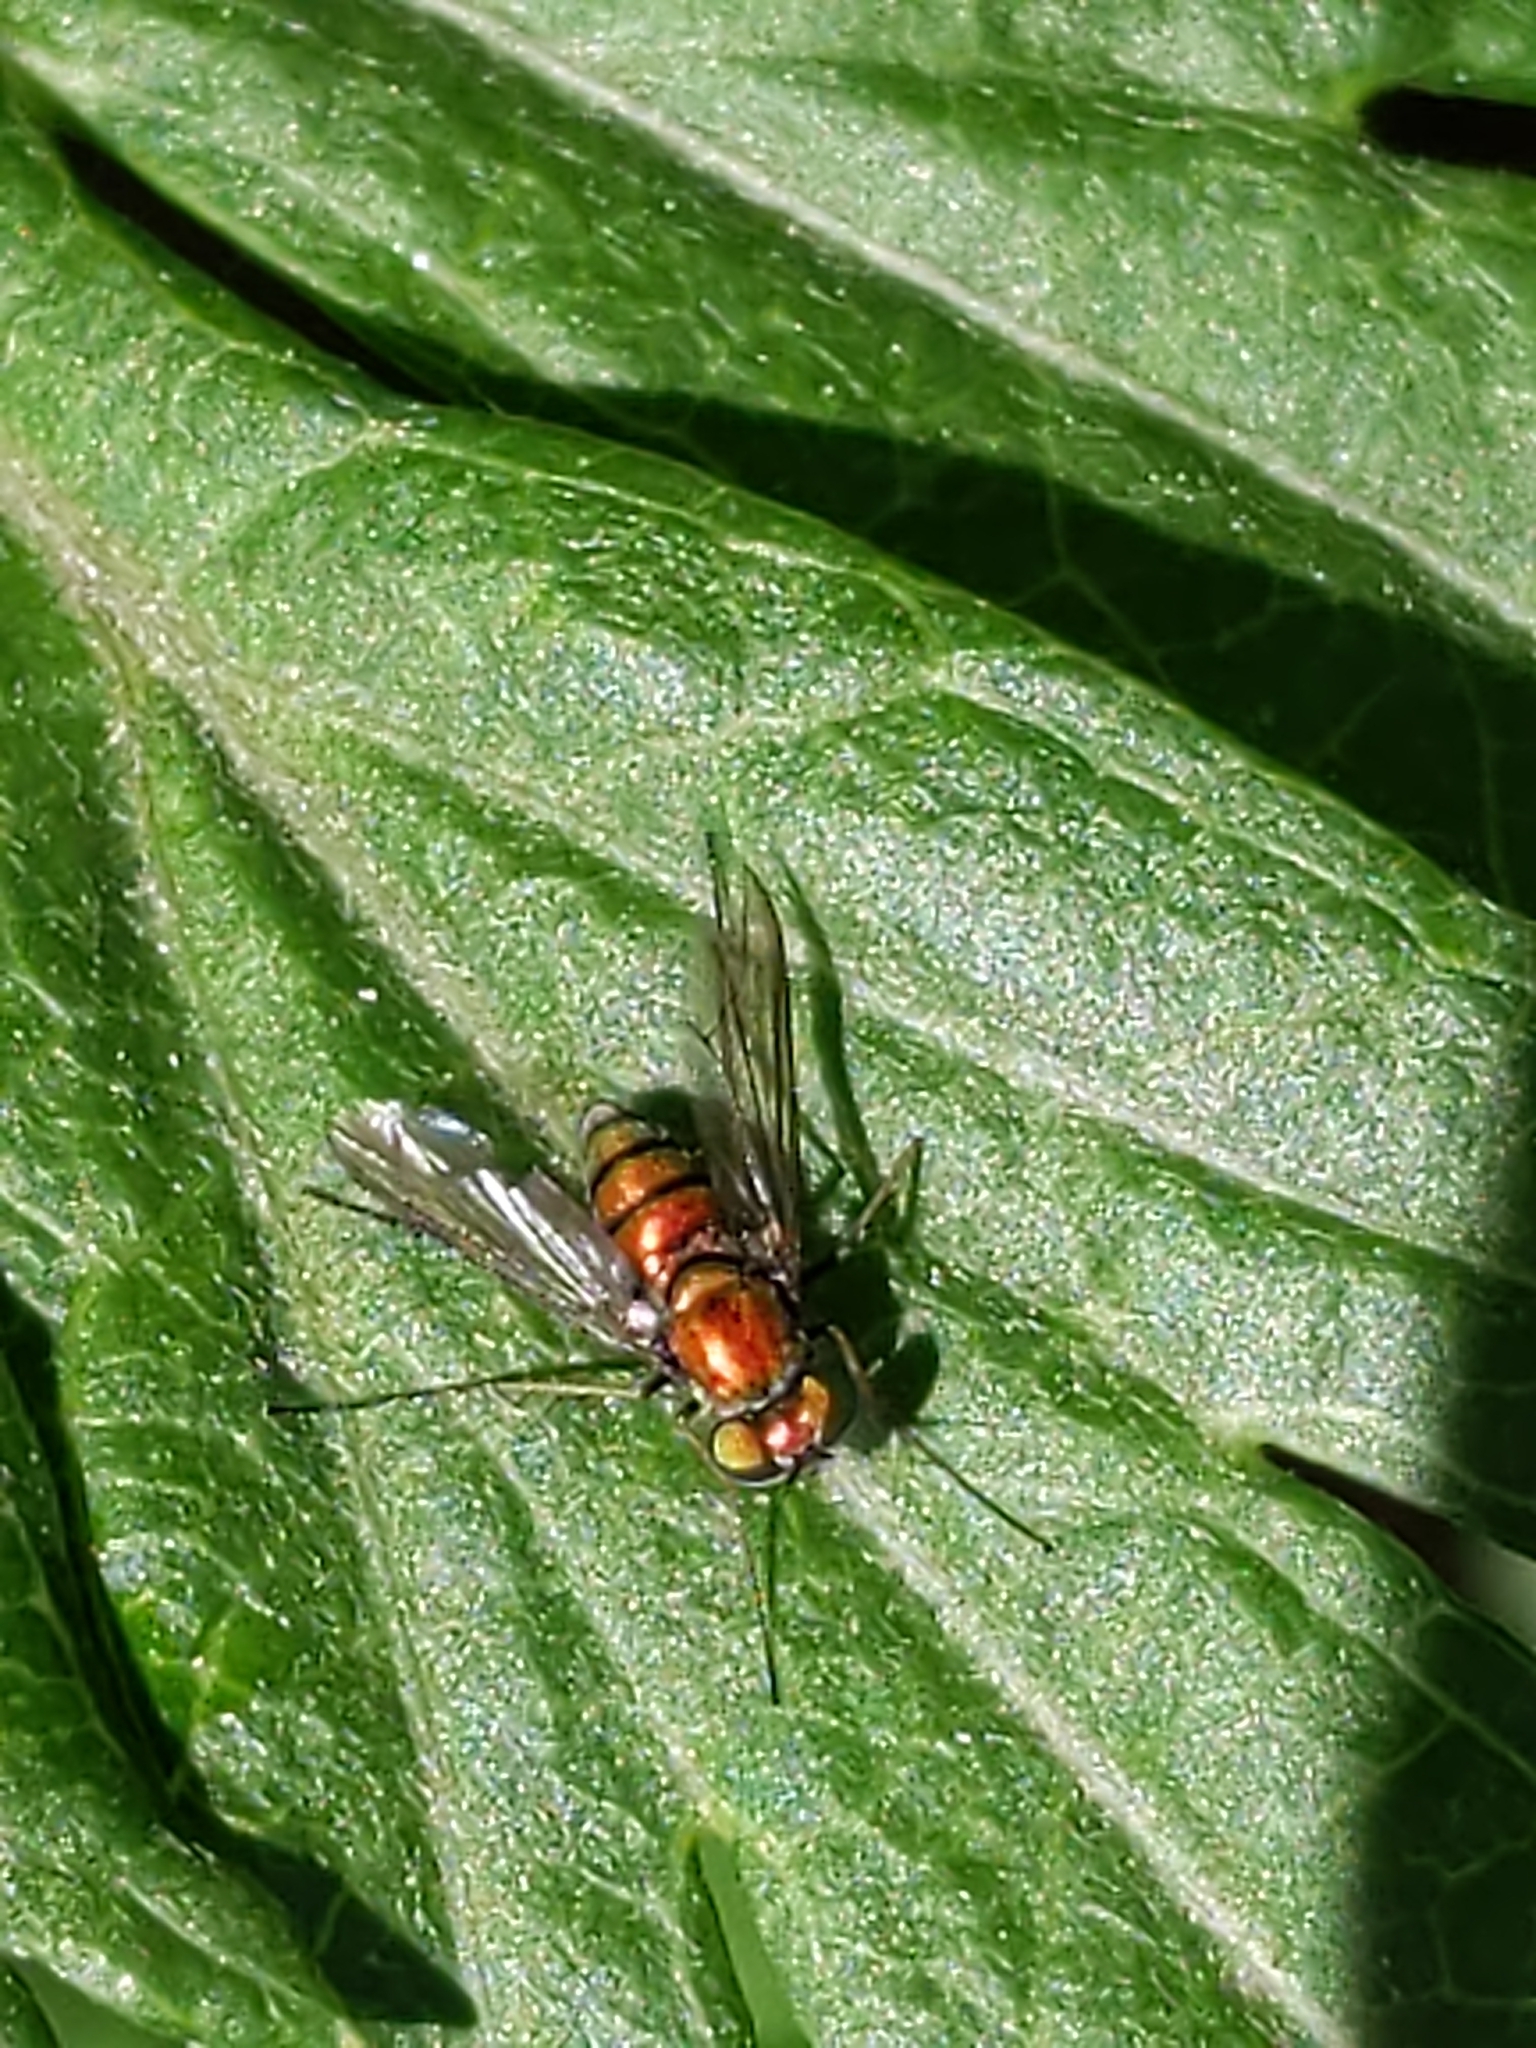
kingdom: Animalia
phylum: Arthropoda
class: Insecta
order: Diptera
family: Dolichopodidae
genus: Condylostylus
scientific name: Condylostylus
